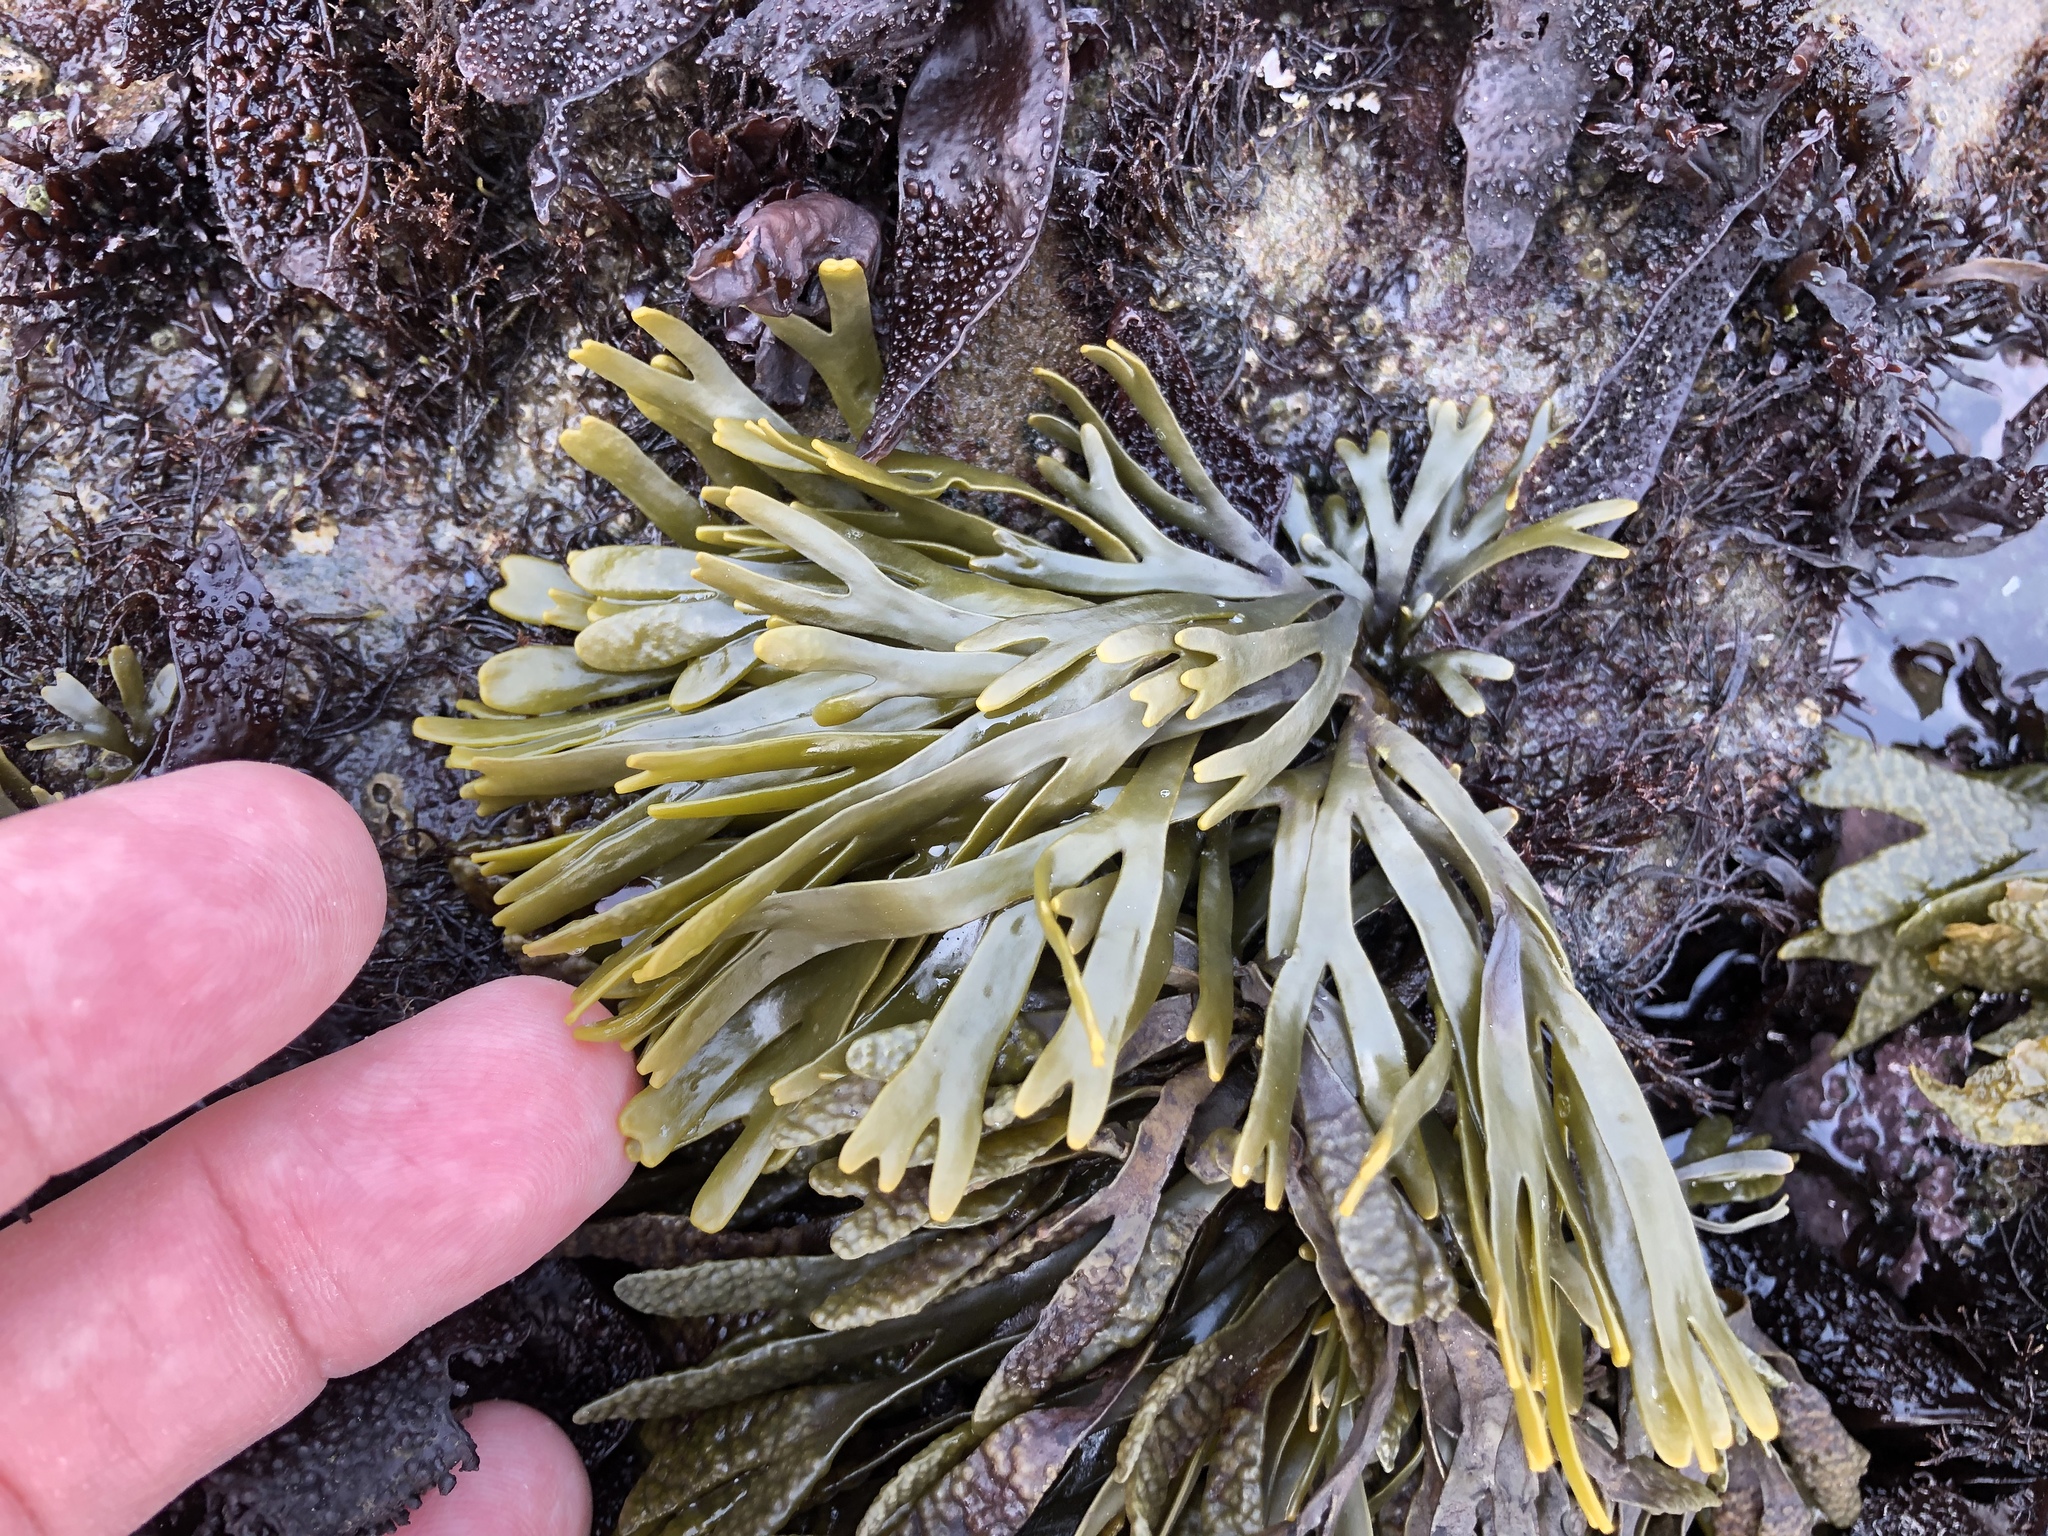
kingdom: Chromista
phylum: Ochrophyta
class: Phaeophyceae
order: Fucales
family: Fucaceae
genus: Pelvetiopsis
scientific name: Pelvetiopsis limitata
